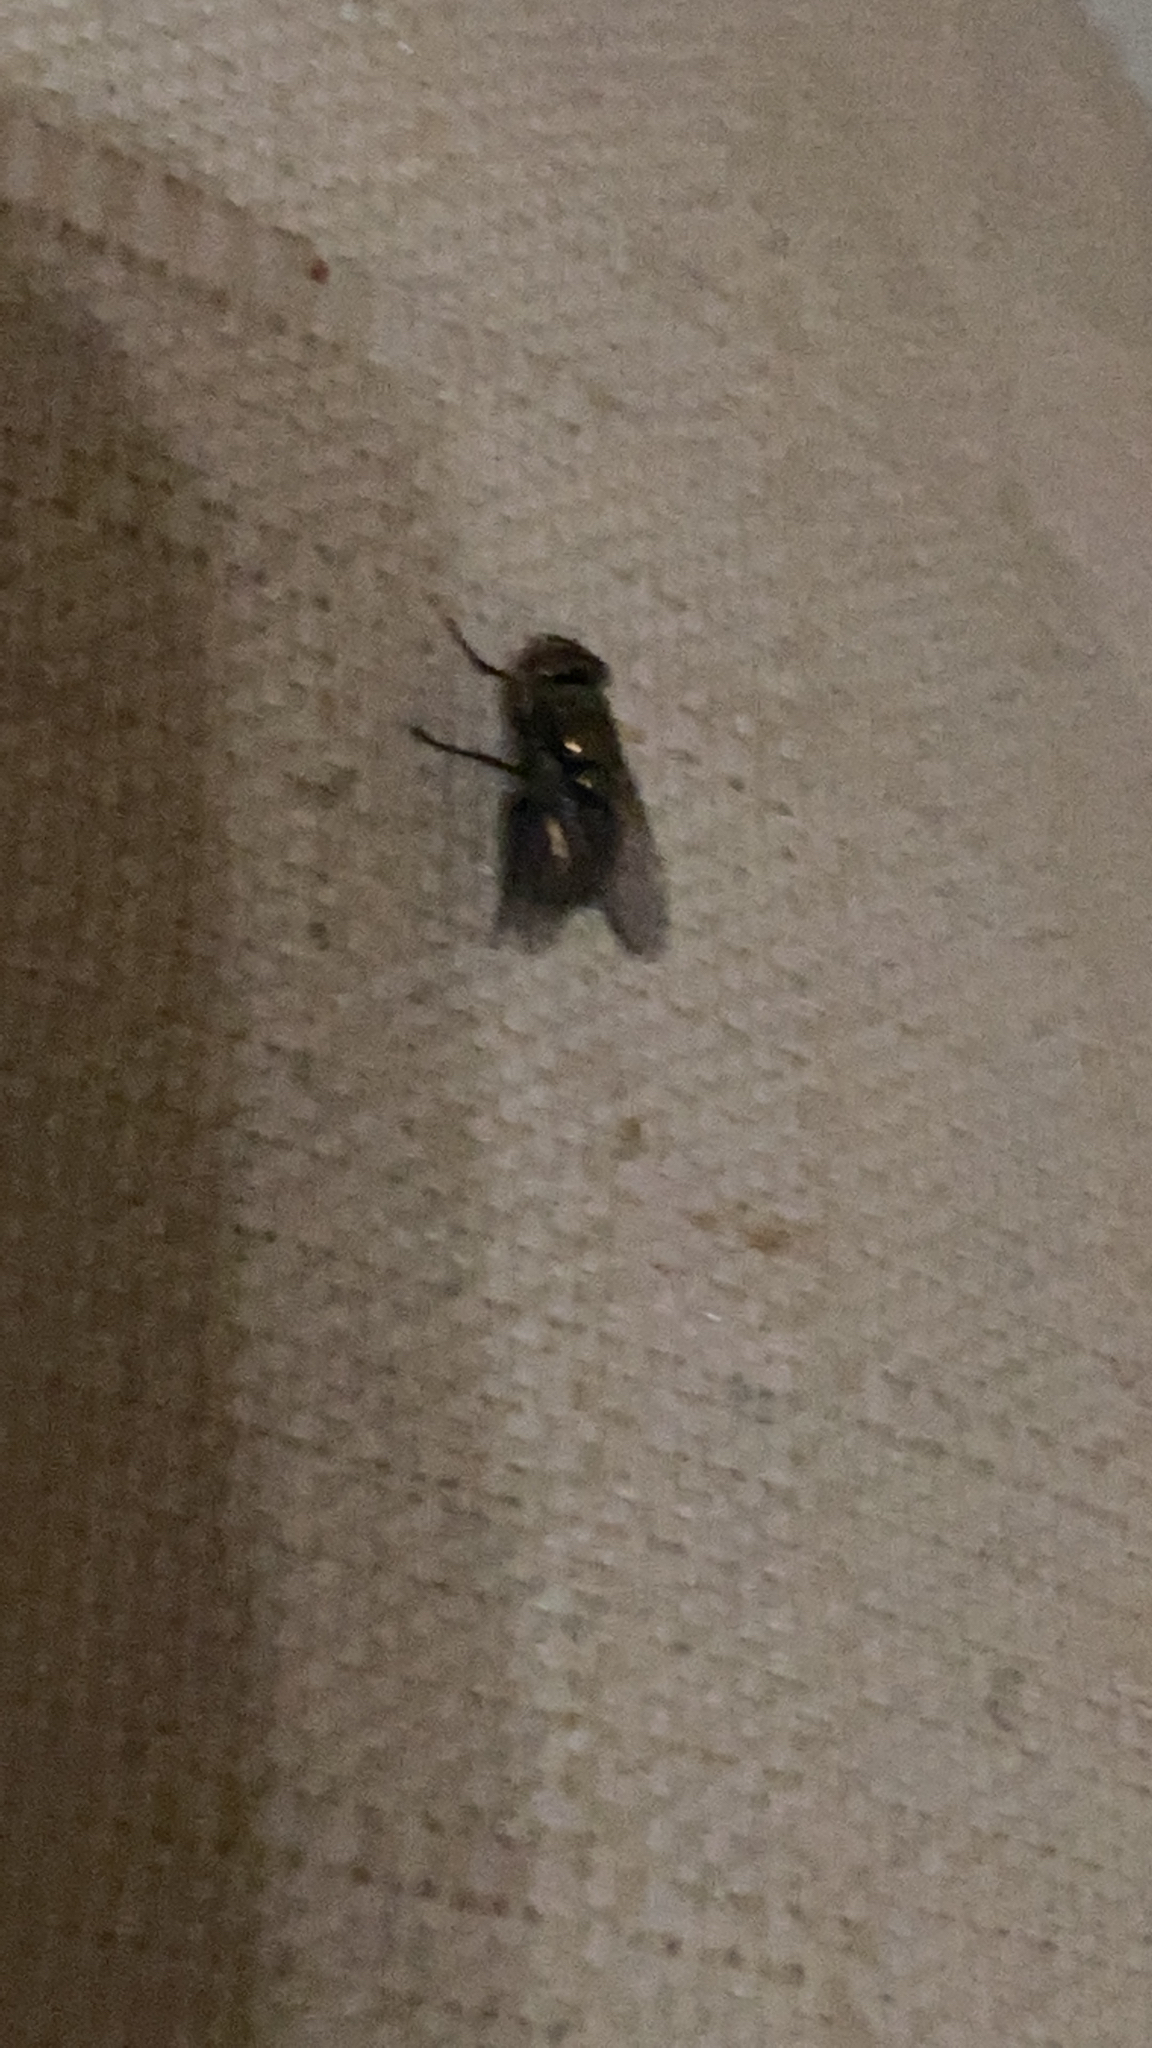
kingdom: Animalia
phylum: Arthropoda
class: Insecta
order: Diptera
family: Calliphoridae
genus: Lucilia
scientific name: Lucilia cuprina
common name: Sheep blow fly
